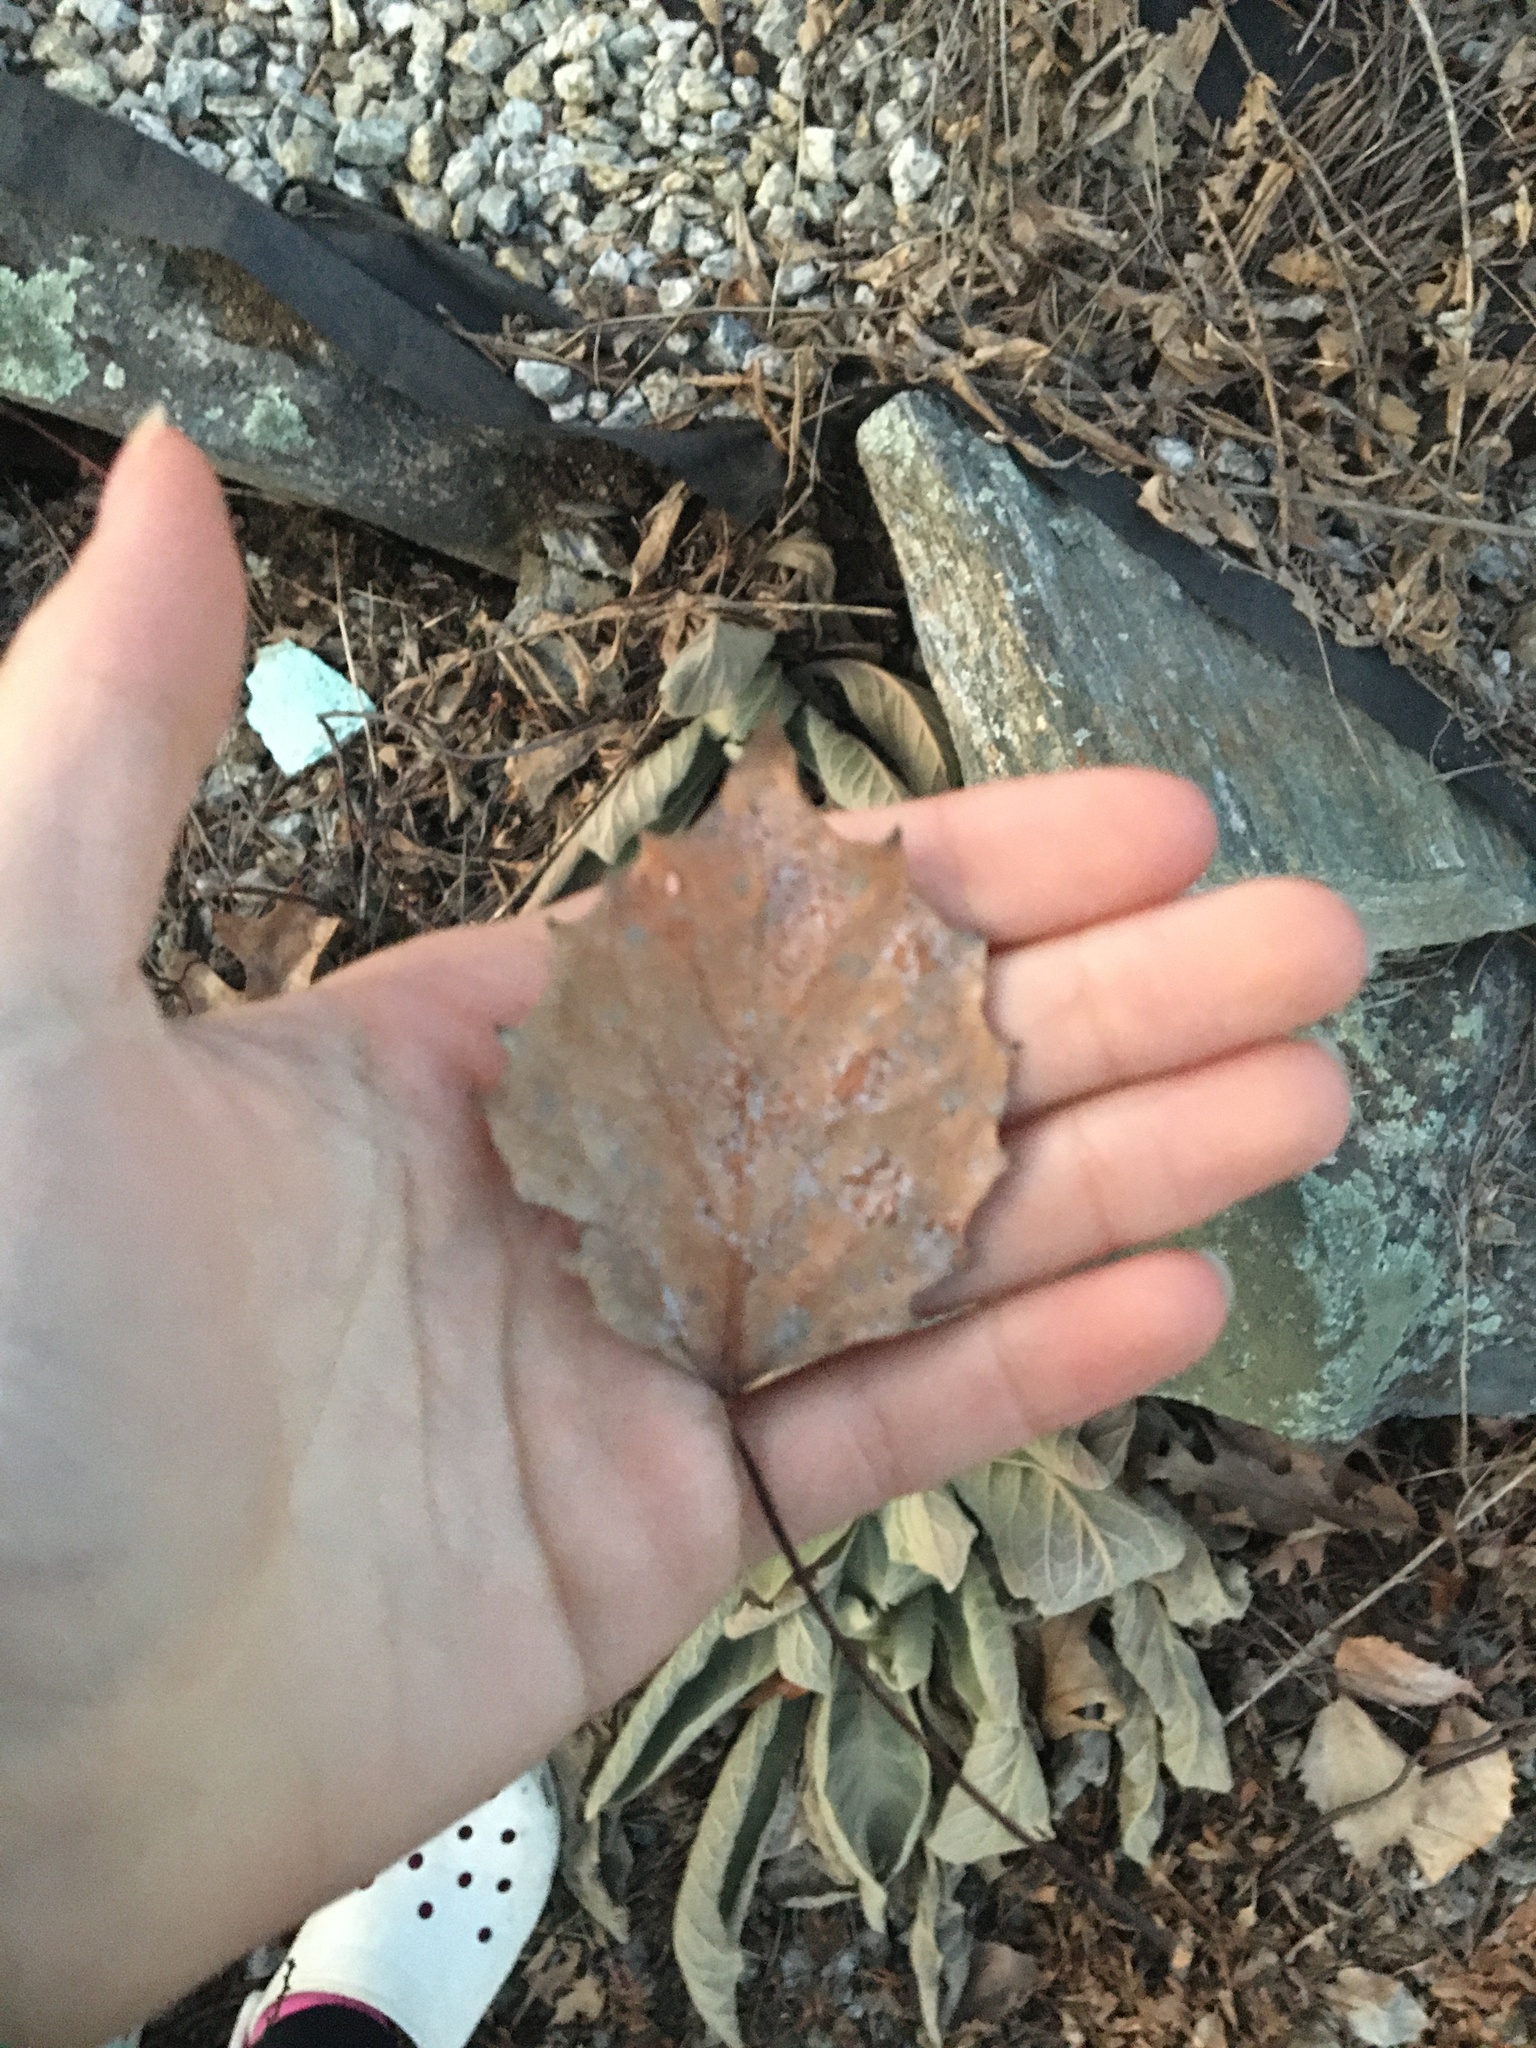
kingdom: Plantae
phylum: Tracheophyta
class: Magnoliopsida
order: Malpighiales
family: Salicaceae
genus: Populus
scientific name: Populus grandidentata
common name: Bigtooth aspen
